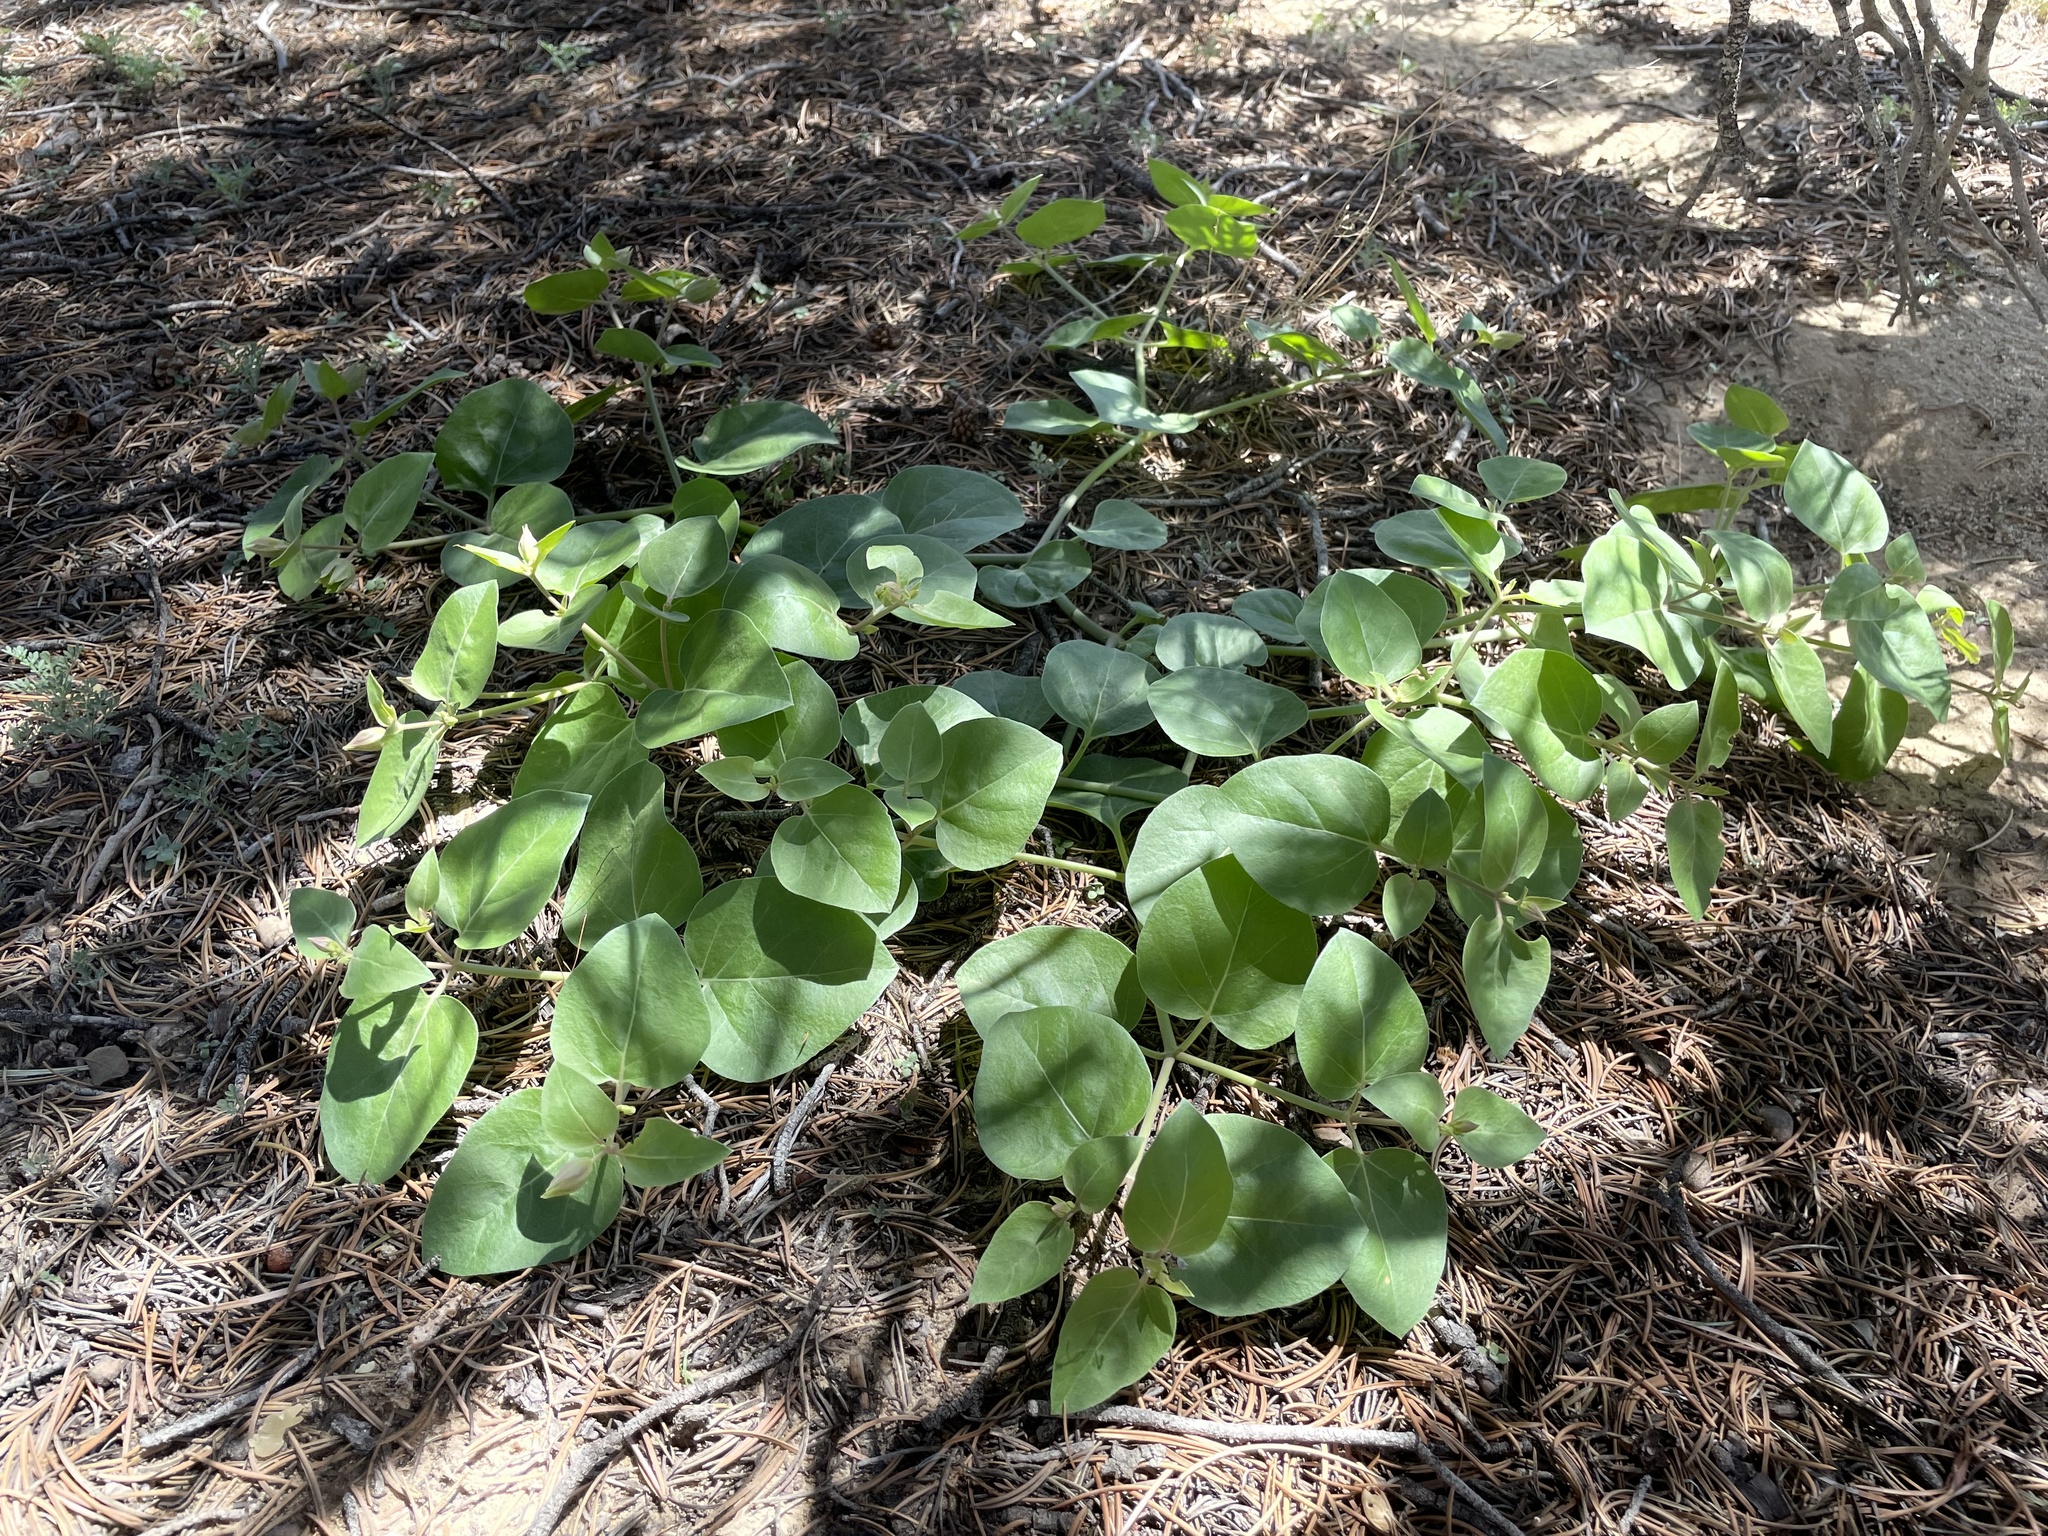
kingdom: Plantae
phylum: Tracheophyta
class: Magnoliopsida
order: Caryophyllales
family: Nyctaginaceae
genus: Mirabilis
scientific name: Mirabilis multiflora
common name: Froebel's four-o'clock
